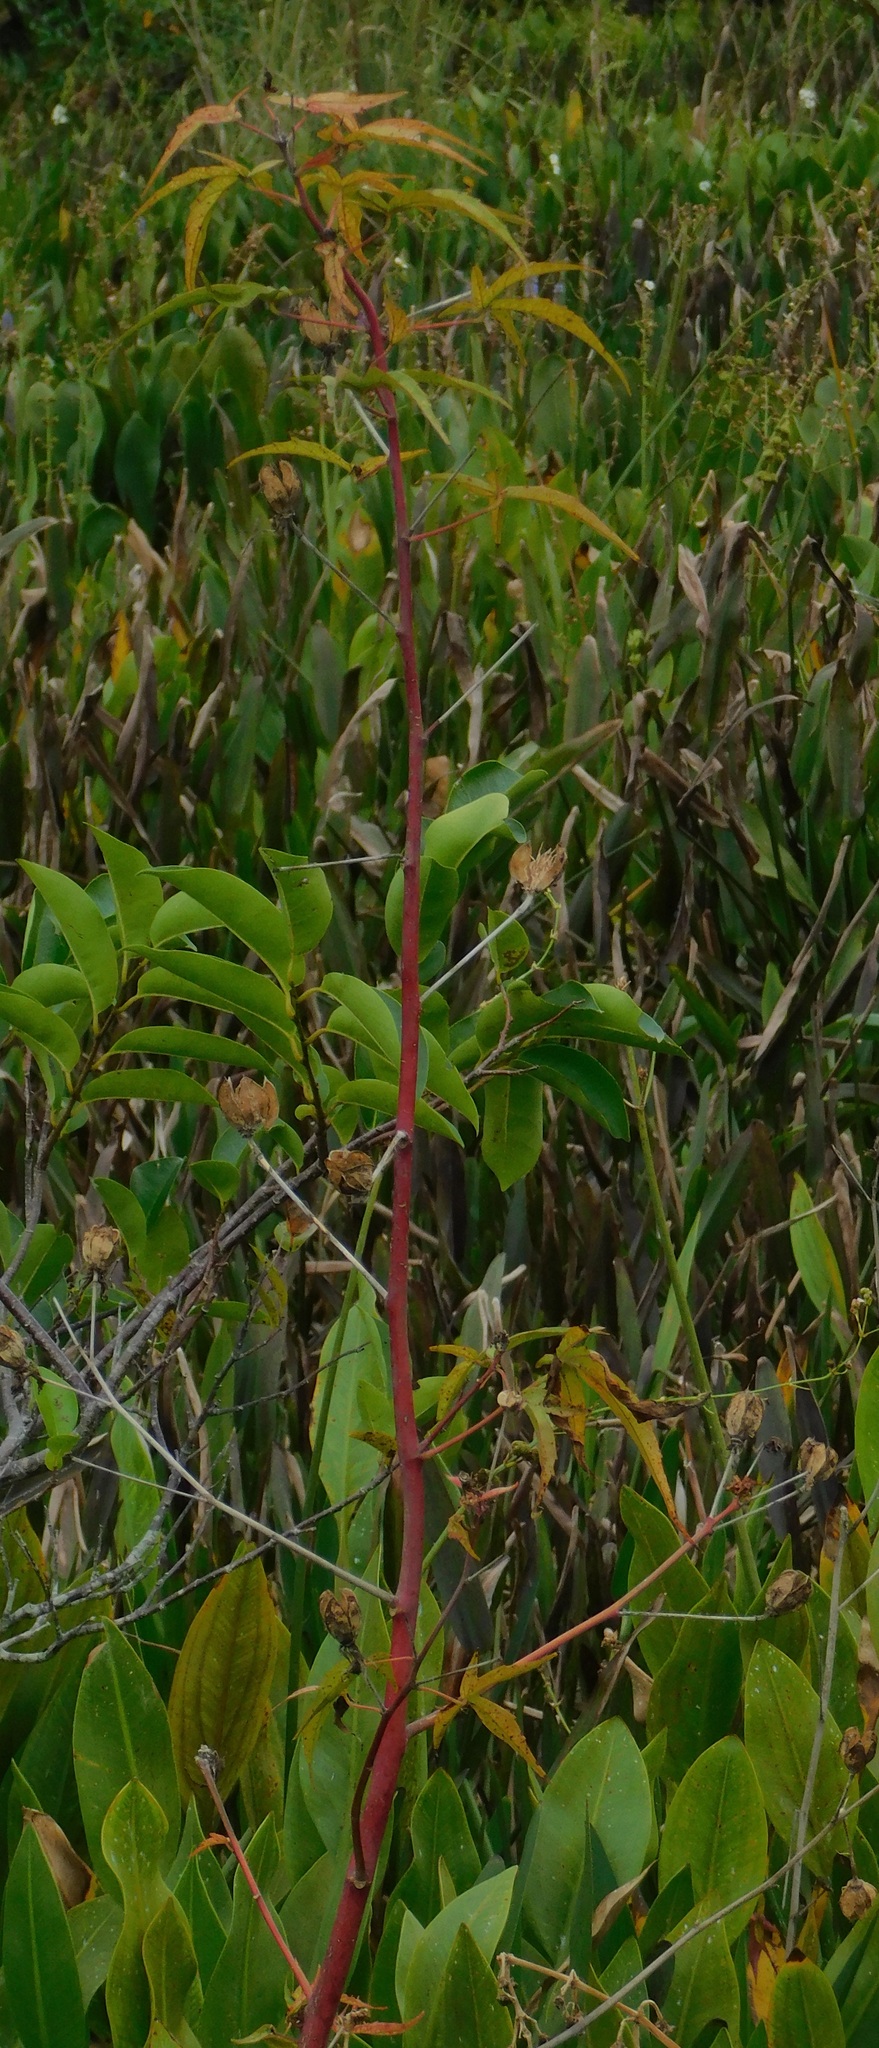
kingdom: Plantae
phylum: Tracheophyta
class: Magnoliopsida
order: Malvales
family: Malvaceae
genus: Hibiscus
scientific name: Hibiscus coccineus
